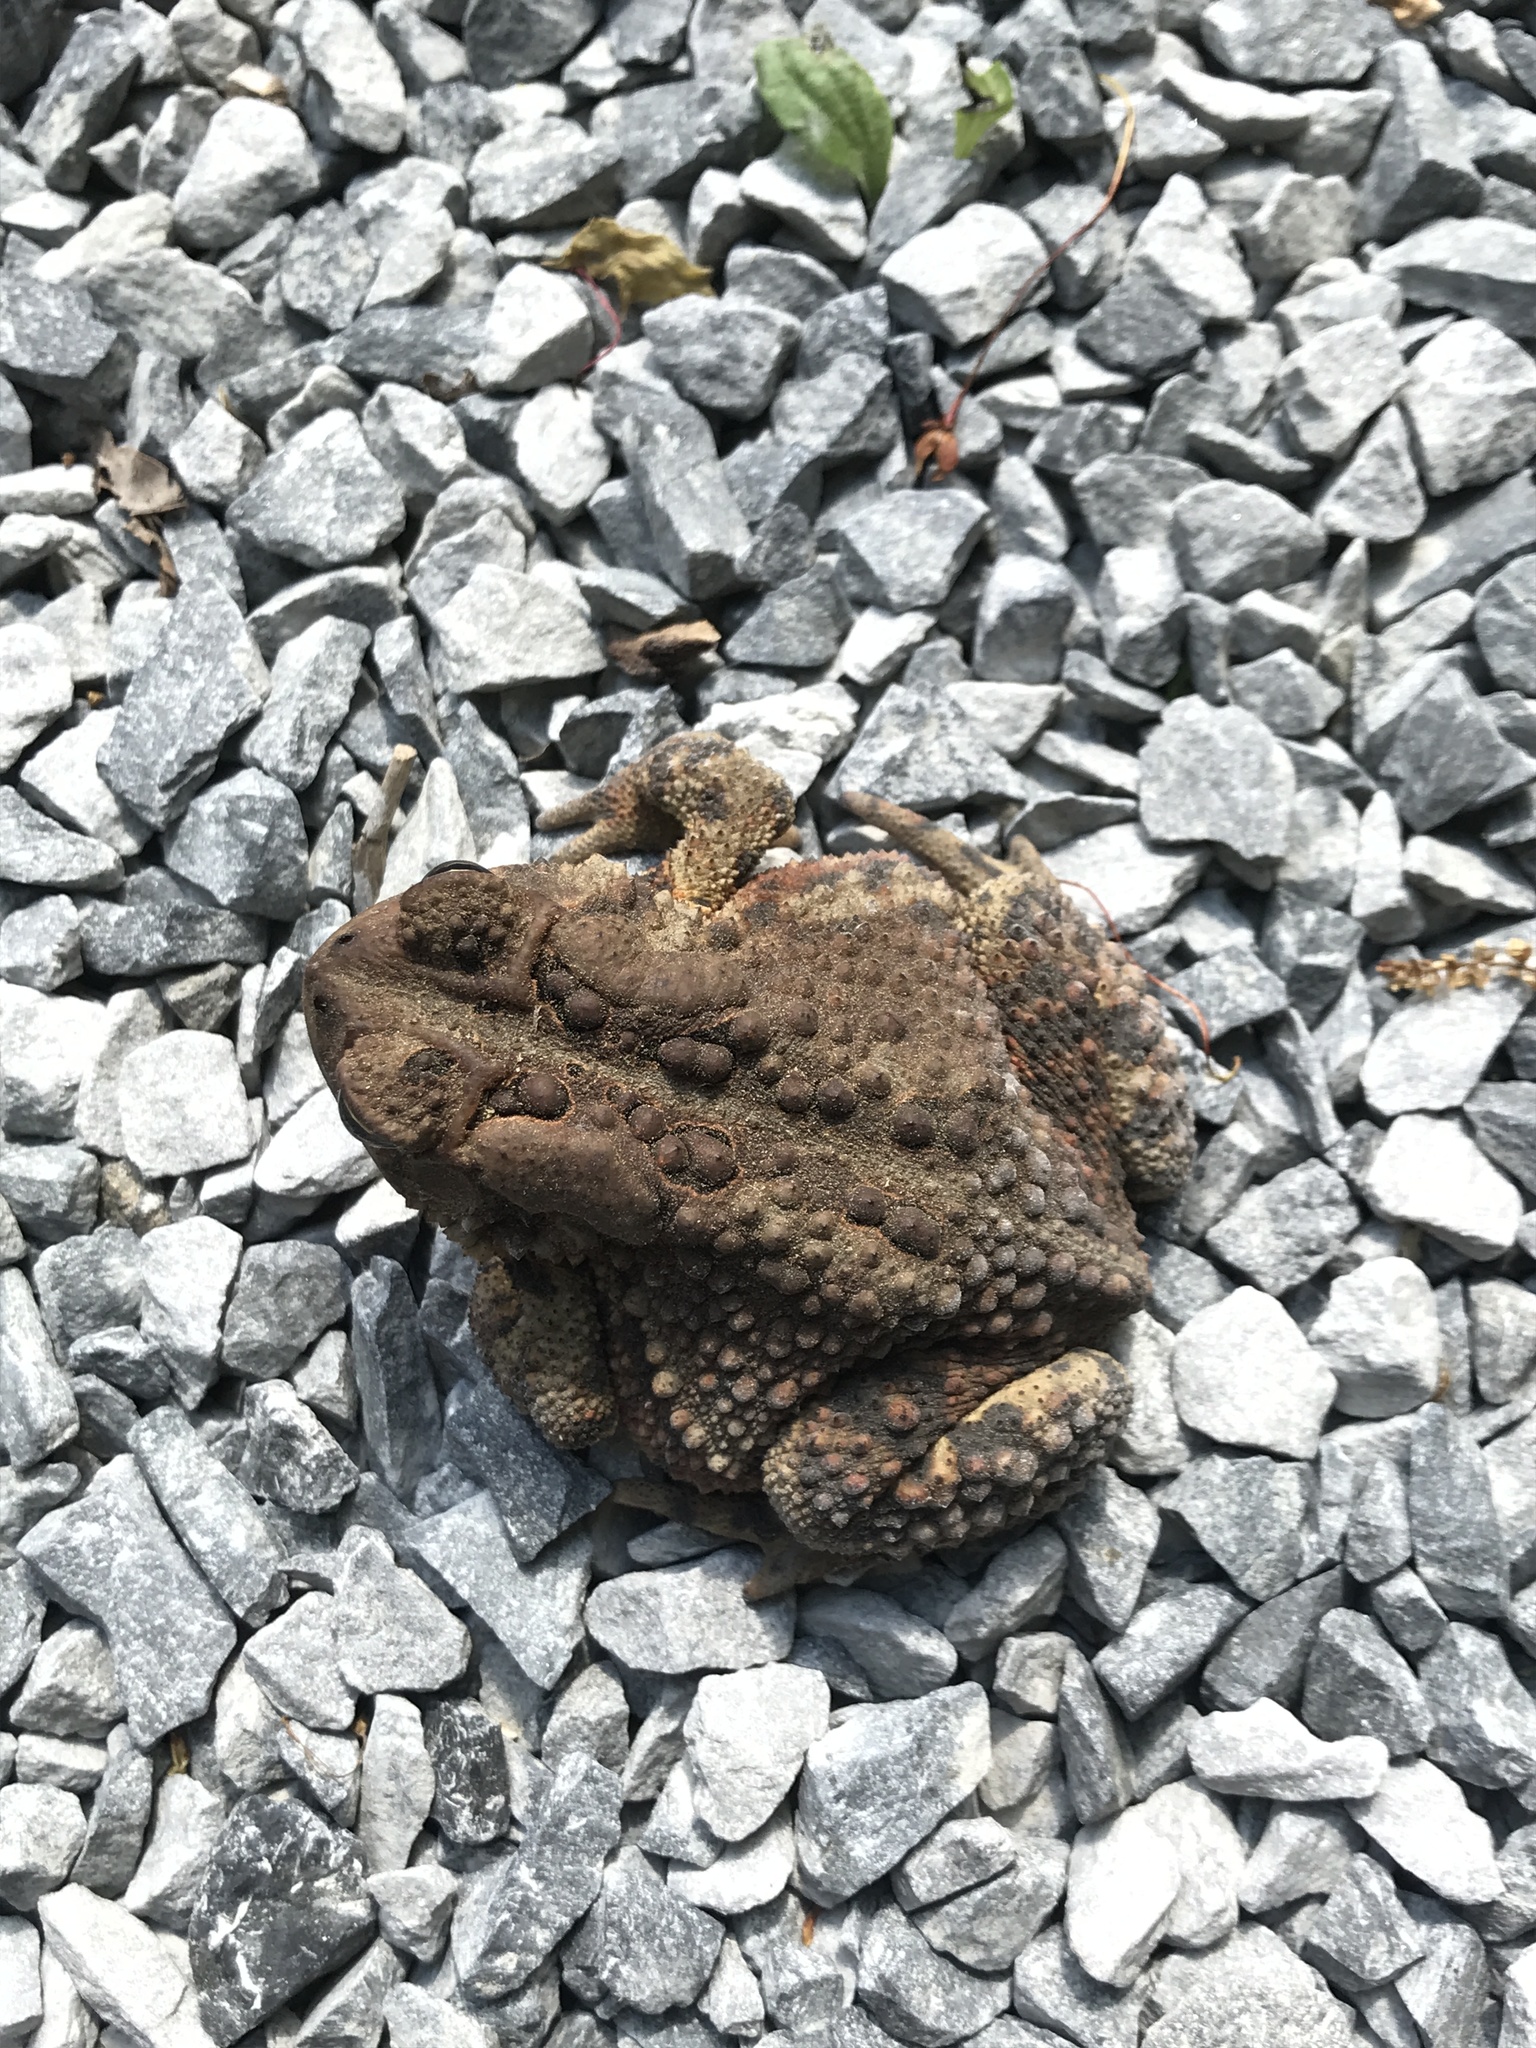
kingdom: Animalia
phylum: Chordata
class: Amphibia
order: Anura
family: Bufonidae
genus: Anaxyrus
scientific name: Anaxyrus americanus
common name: American toad
